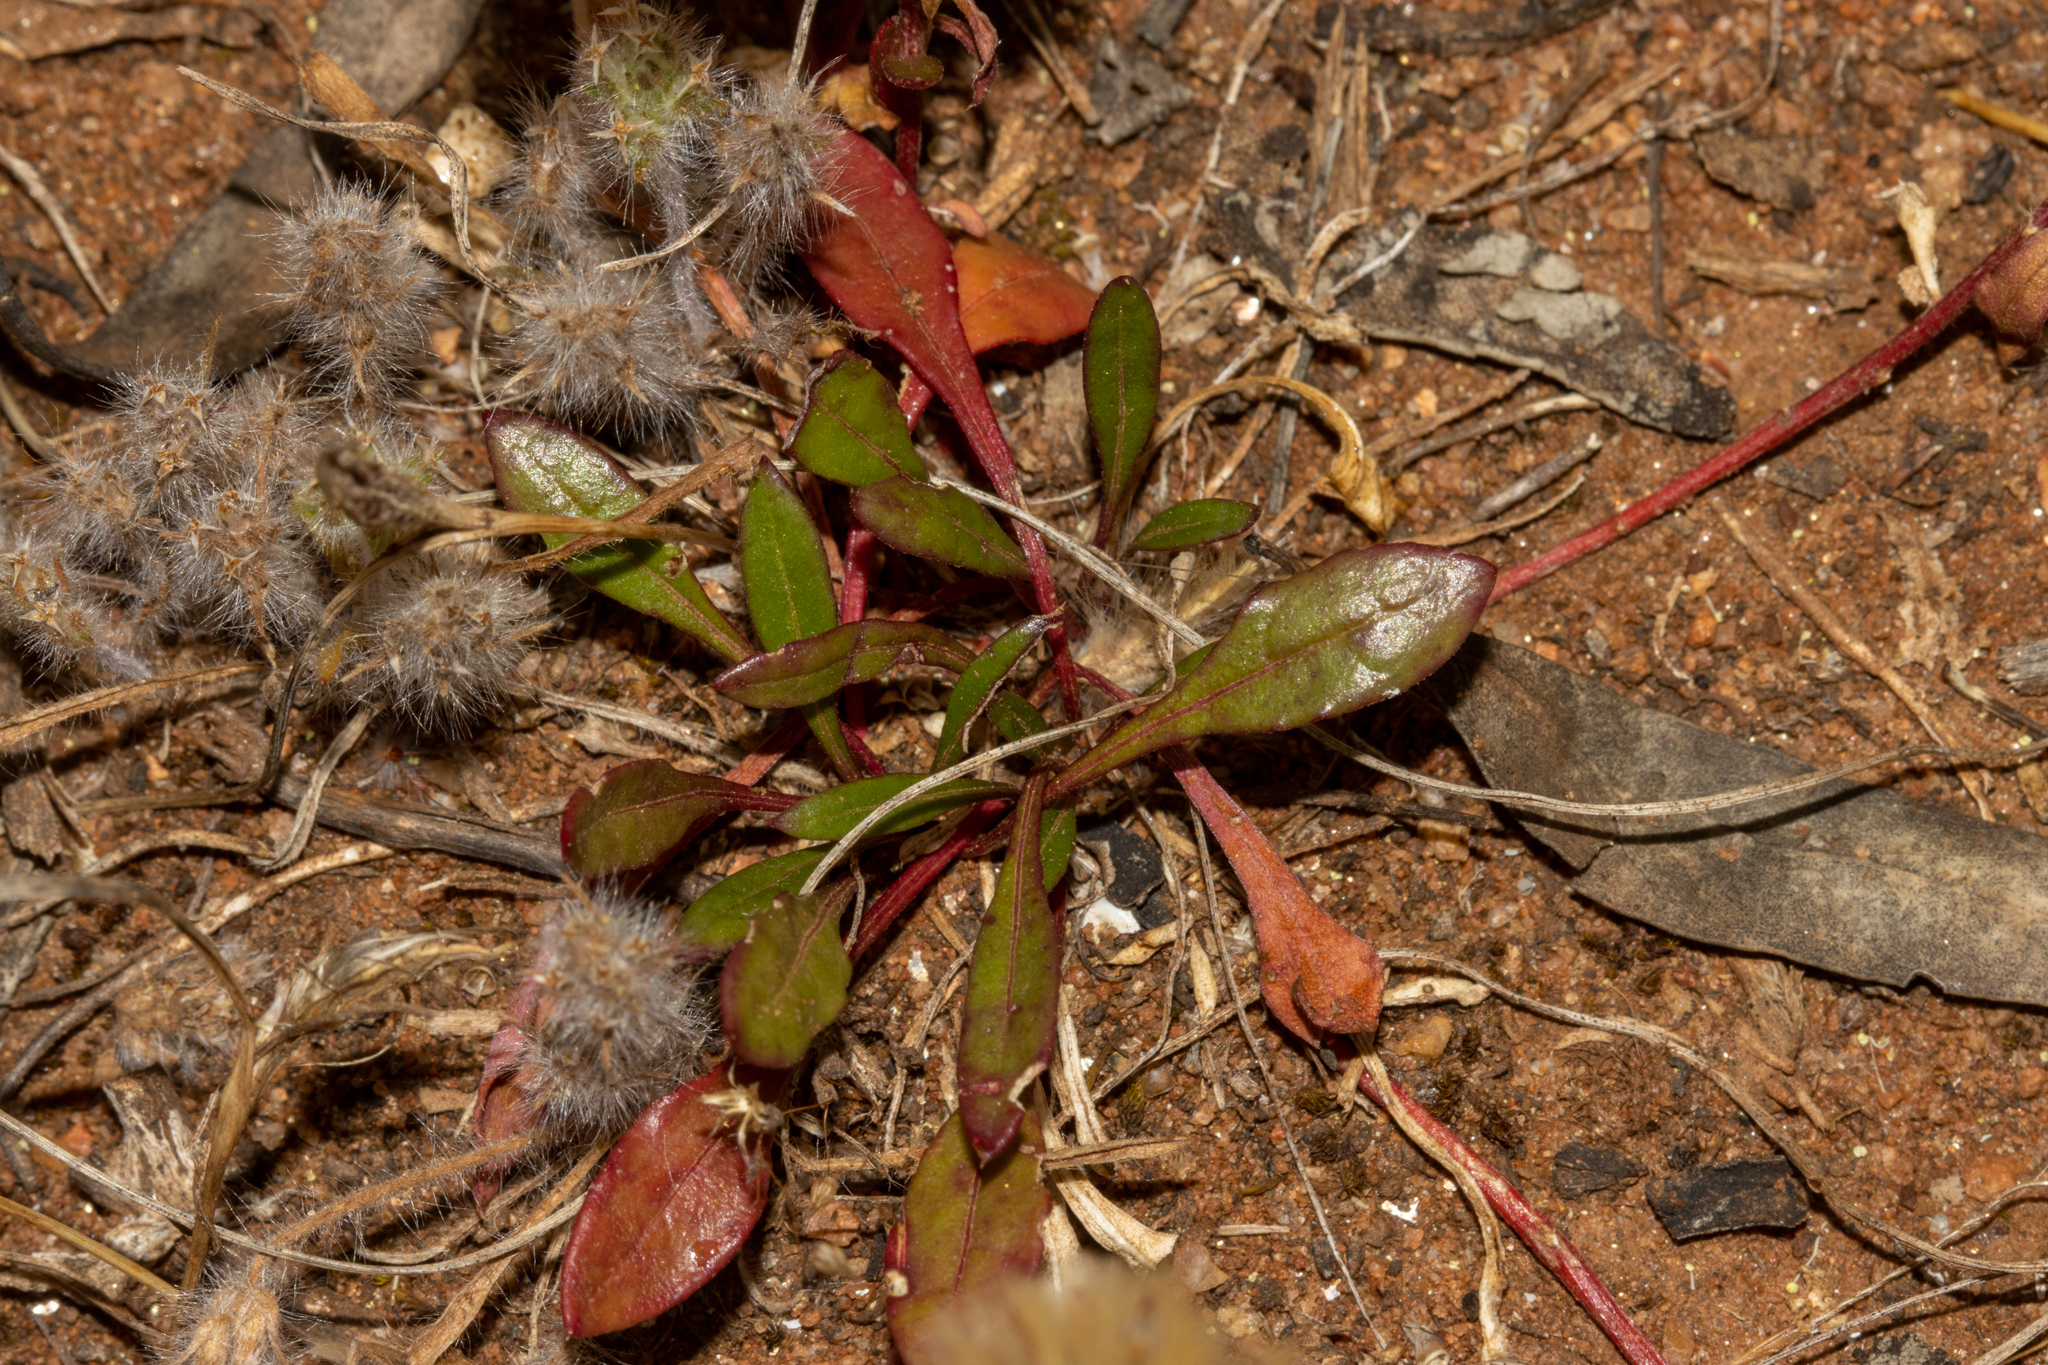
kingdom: Plantae
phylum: Tracheophyta
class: Magnoliopsida
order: Caryophyllales
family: Amaranthaceae
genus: Ptilotus
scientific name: Ptilotus spathulatus
